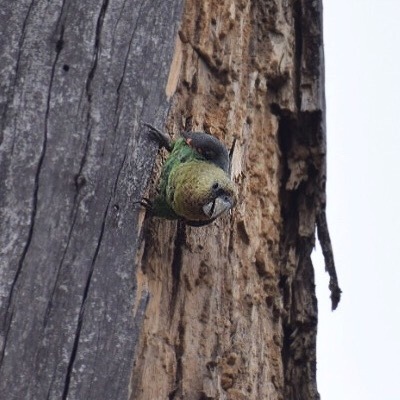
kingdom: Animalia
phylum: Chordata
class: Aves
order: Psittaciformes
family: Psittacidae
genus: Poicephalus
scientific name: Poicephalus robustus
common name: Cape parrot
